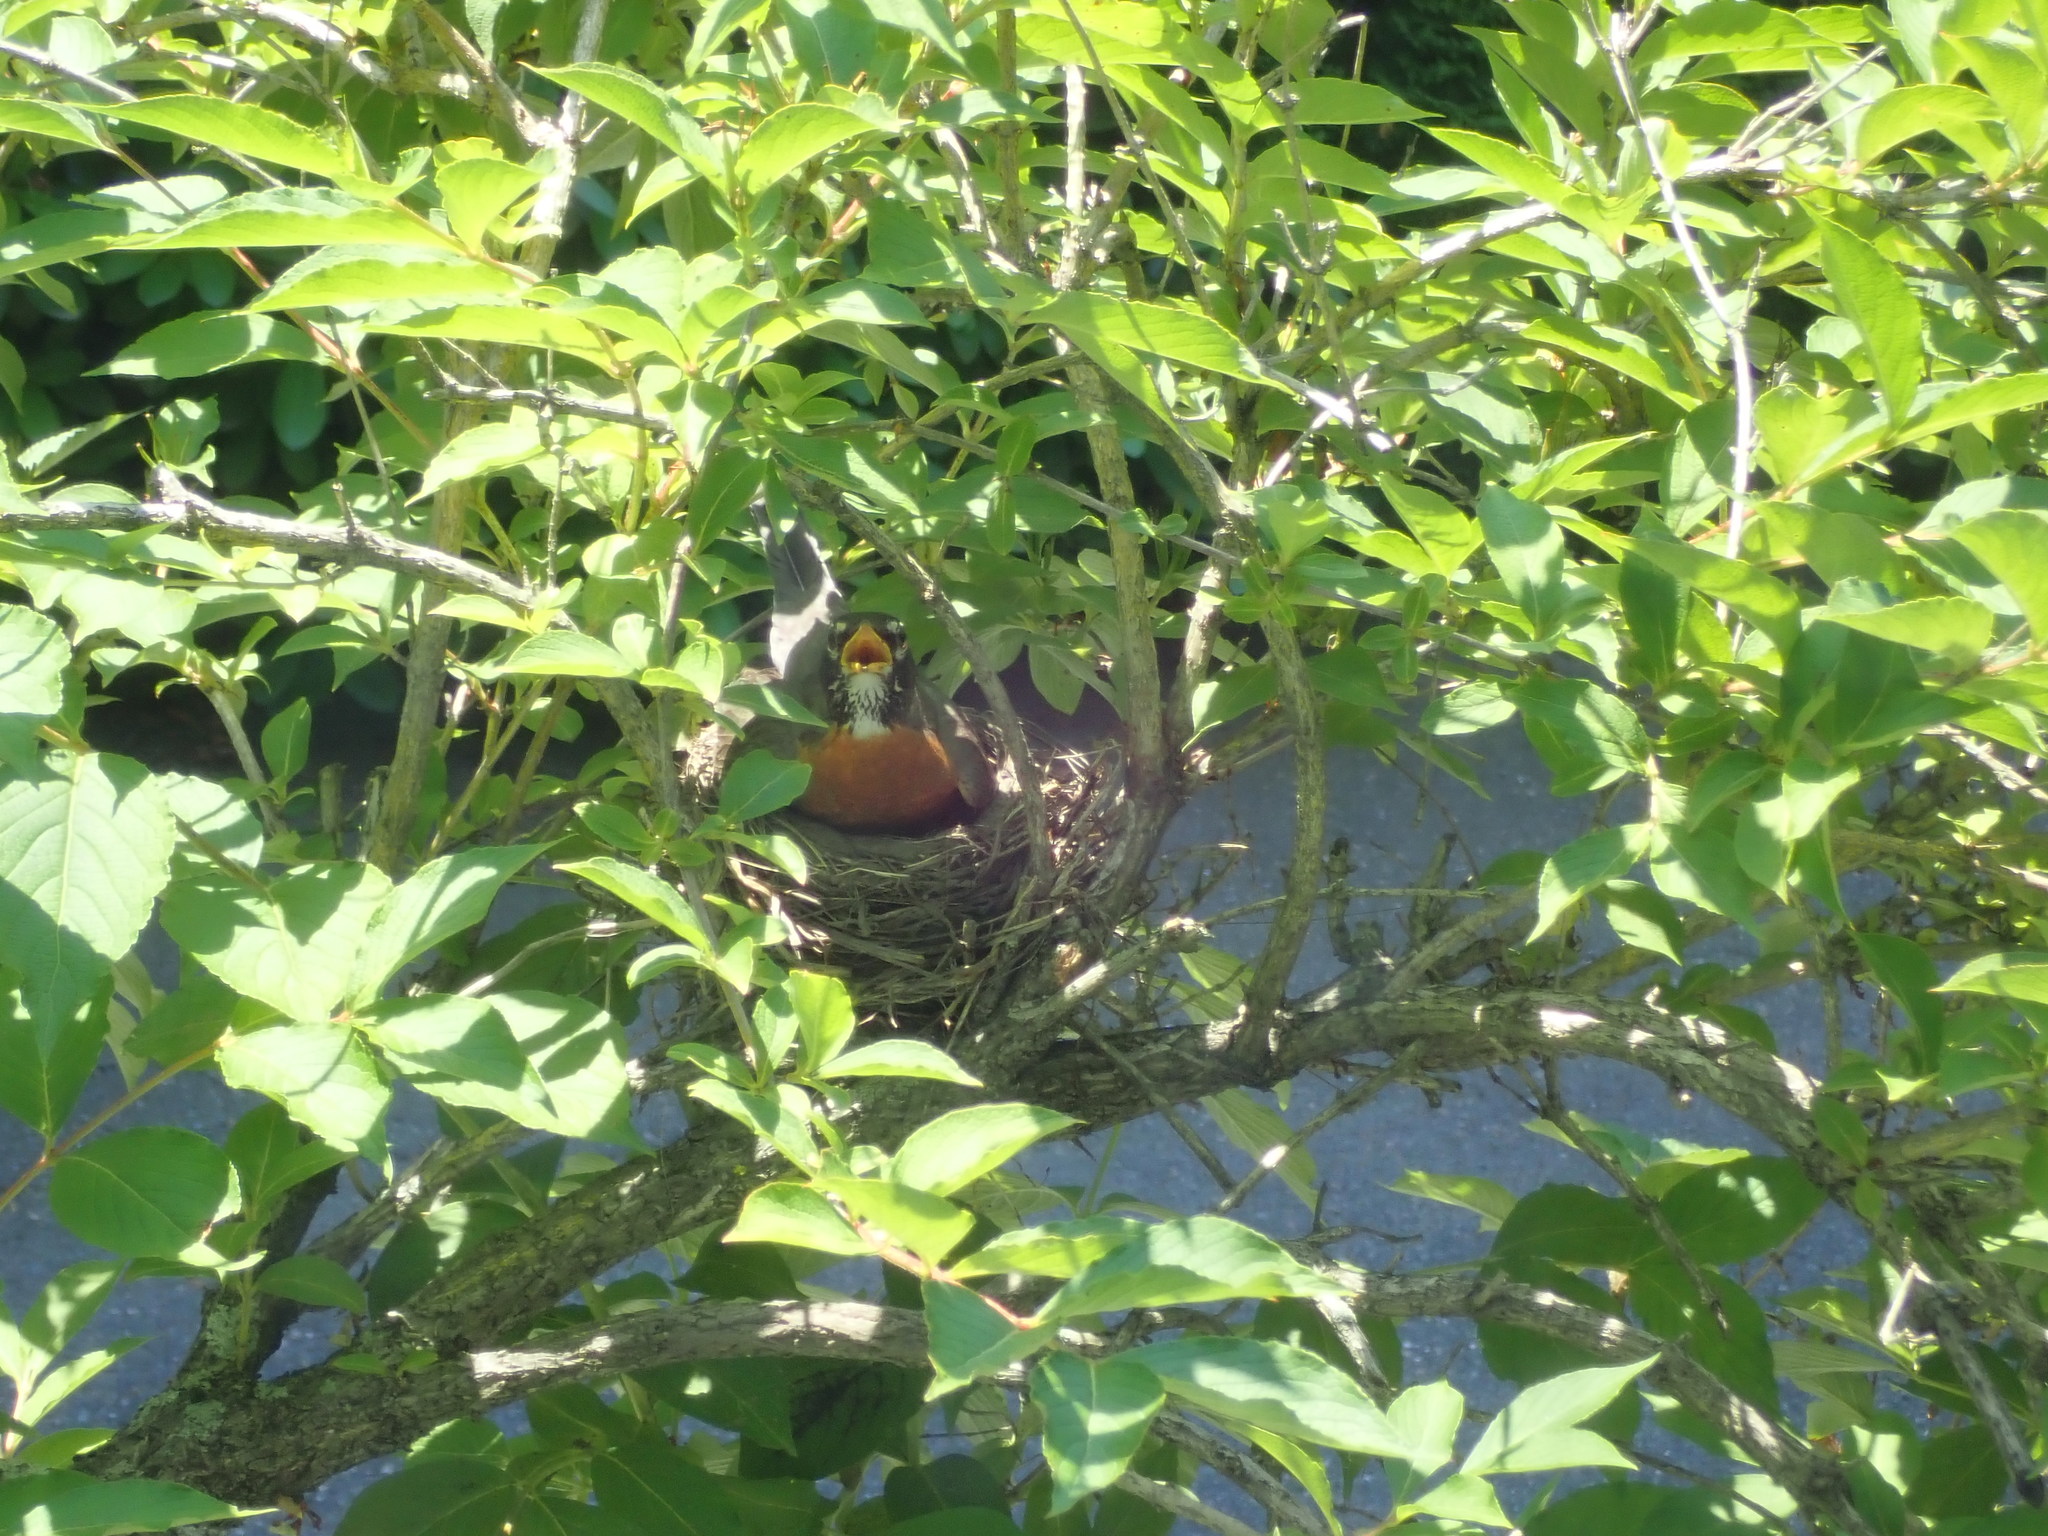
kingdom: Animalia
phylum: Chordata
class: Aves
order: Passeriformes
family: Turdidae
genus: Turdus
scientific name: Turdus migratorius
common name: American robin
